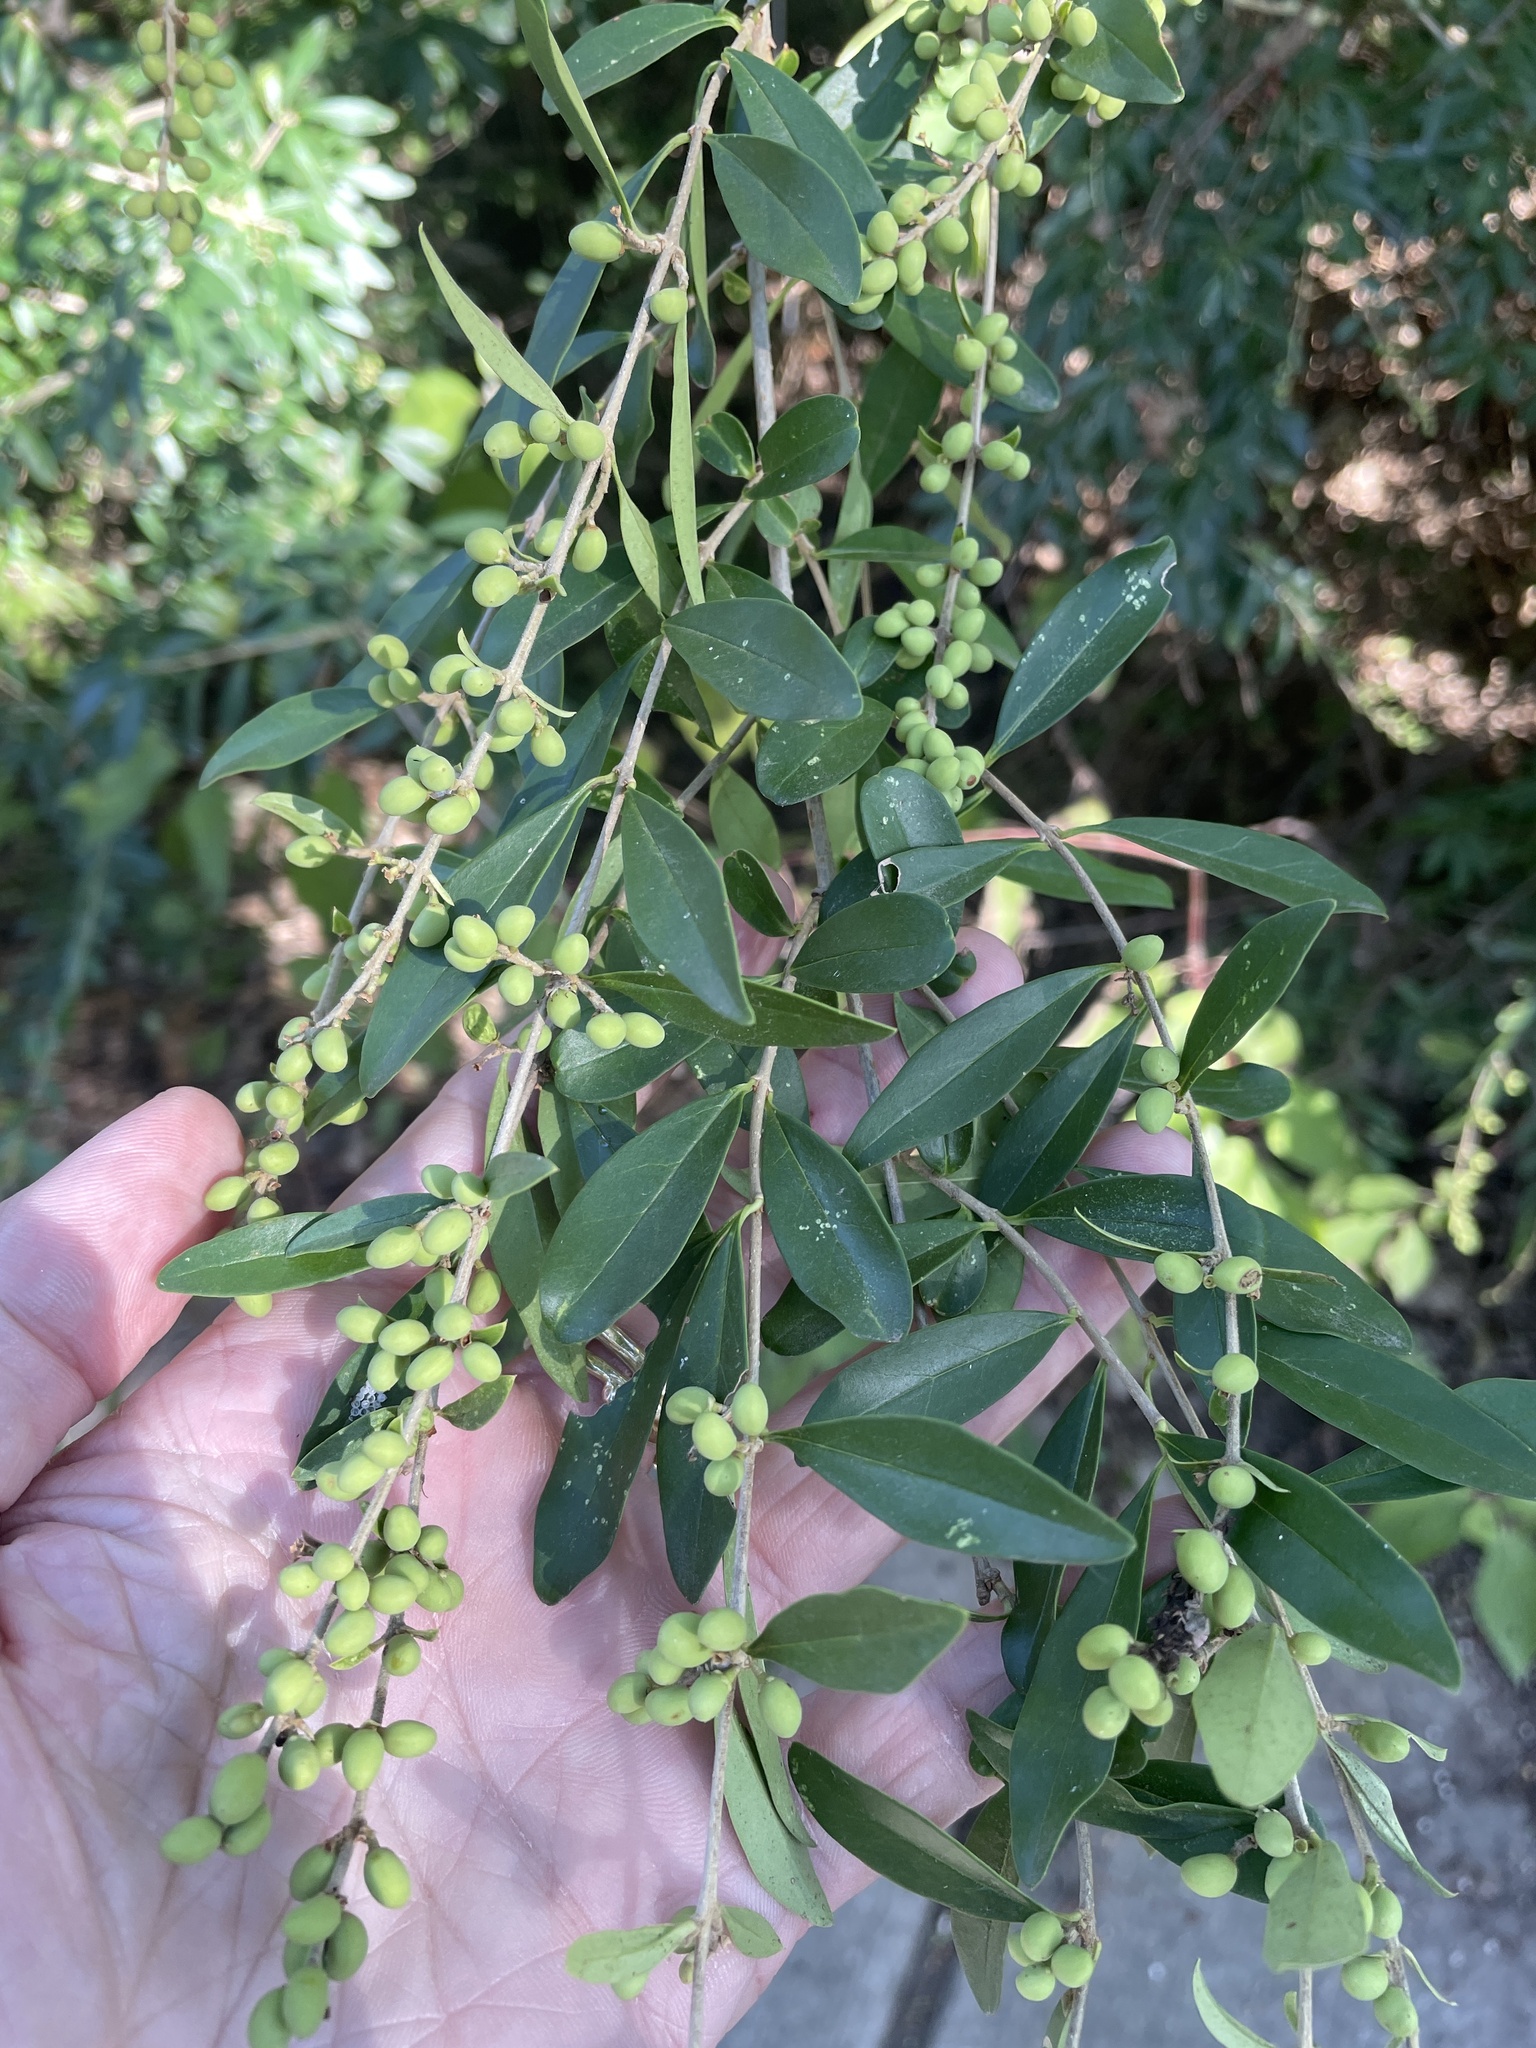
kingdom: Plantae
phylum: Tracheophyta
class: Magnoliopsida
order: Lamiales
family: Oleaceae
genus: Ligustrum
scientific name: Ligustrum quihoui
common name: Waxyleaf privet
